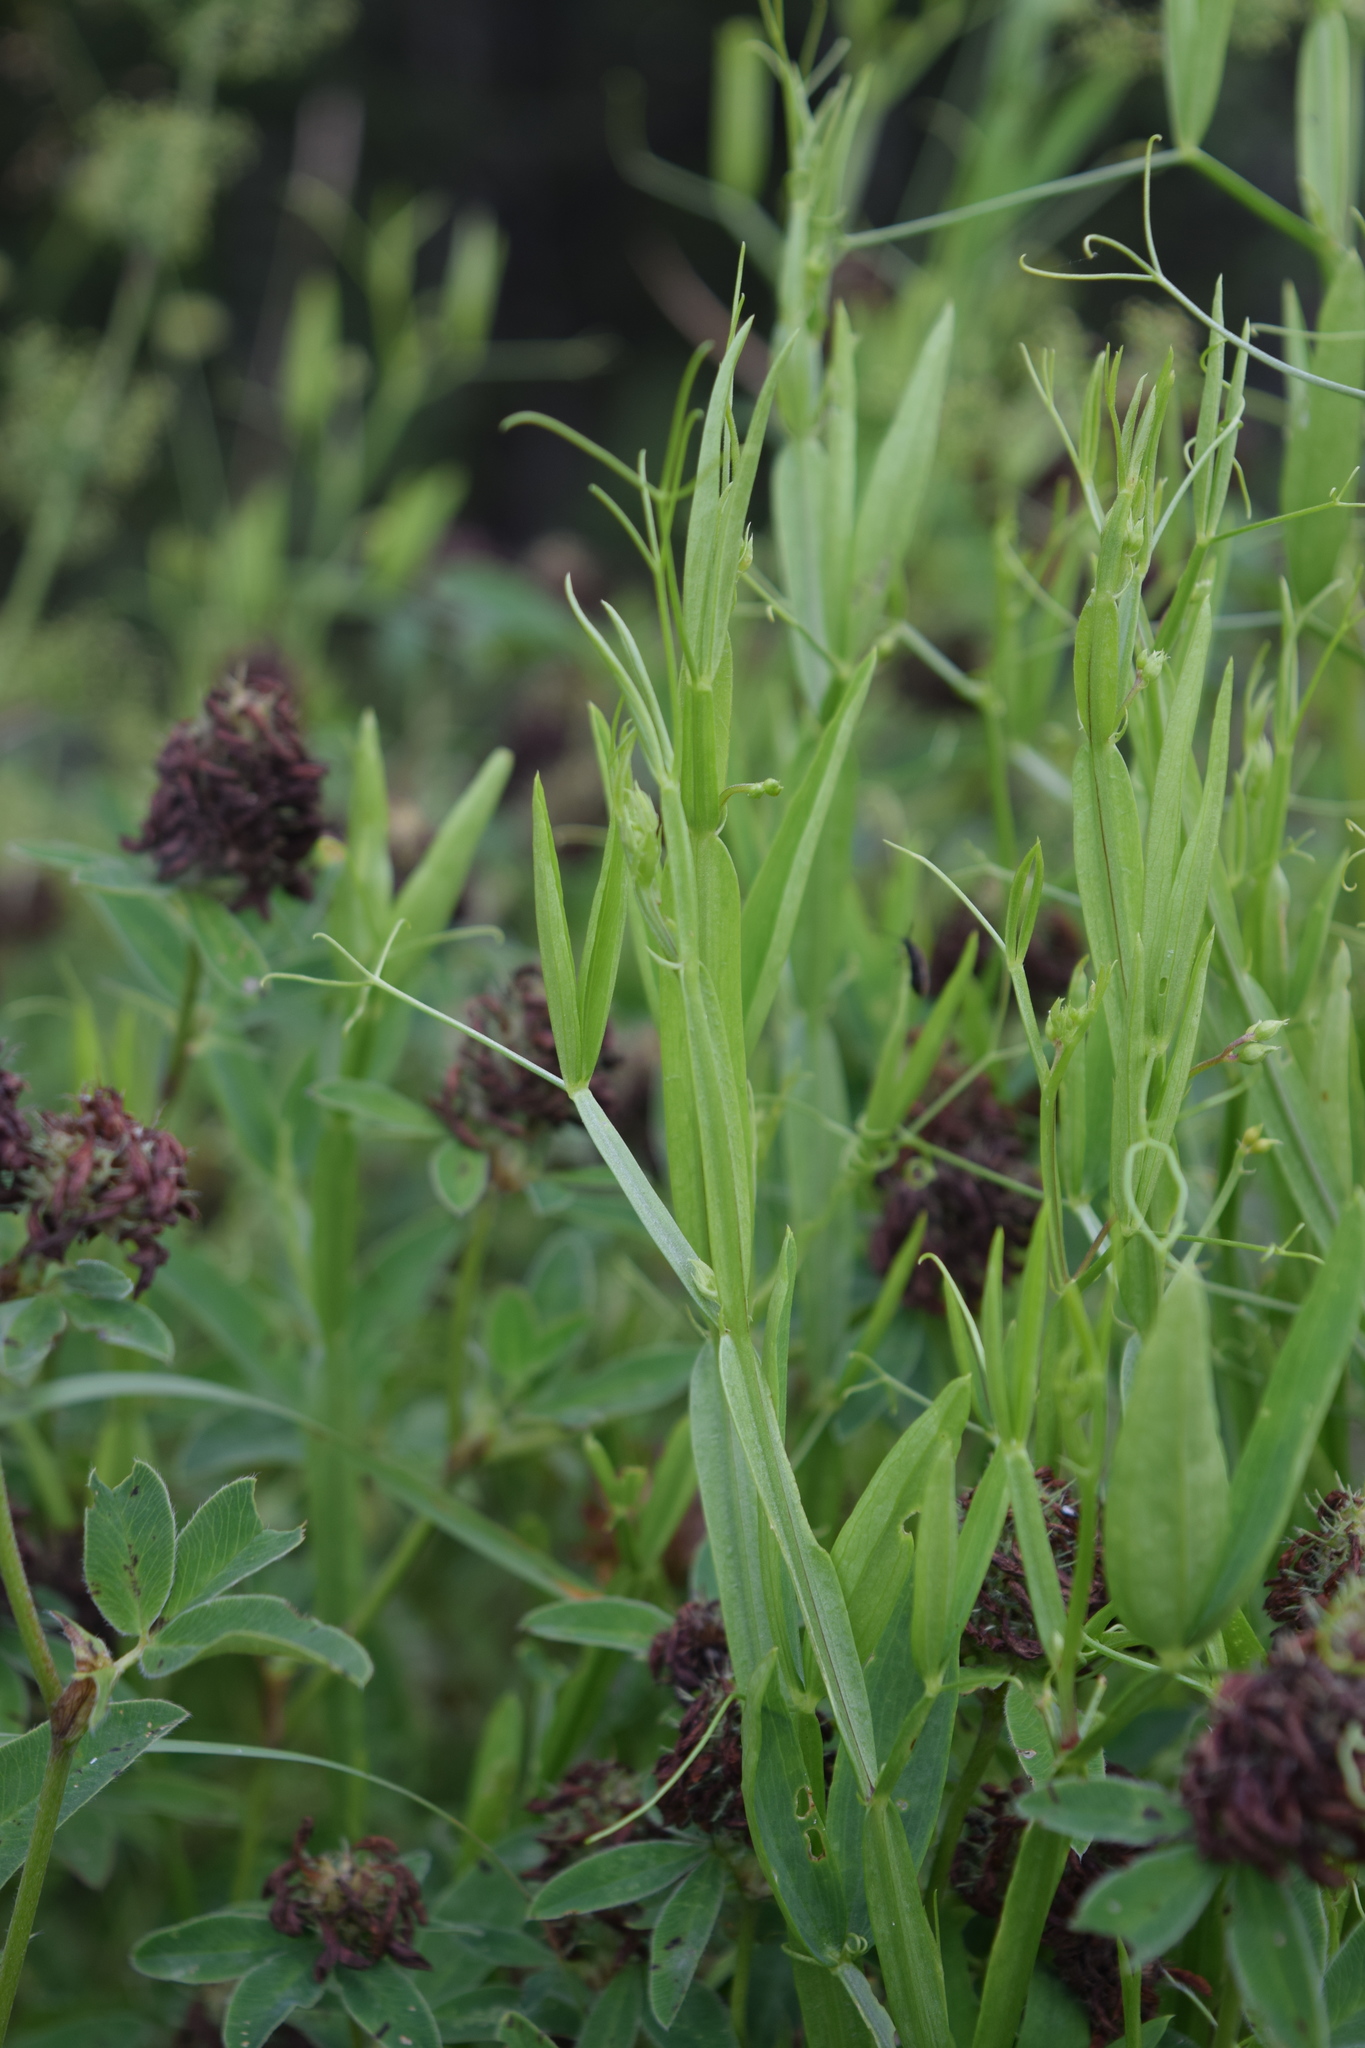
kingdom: Plantae
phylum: Tracheophyta
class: Magnoliopsida
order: Fabales
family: Fabaceae
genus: Lathyrus
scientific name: Lathyrus sylvestris
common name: Flat pea
